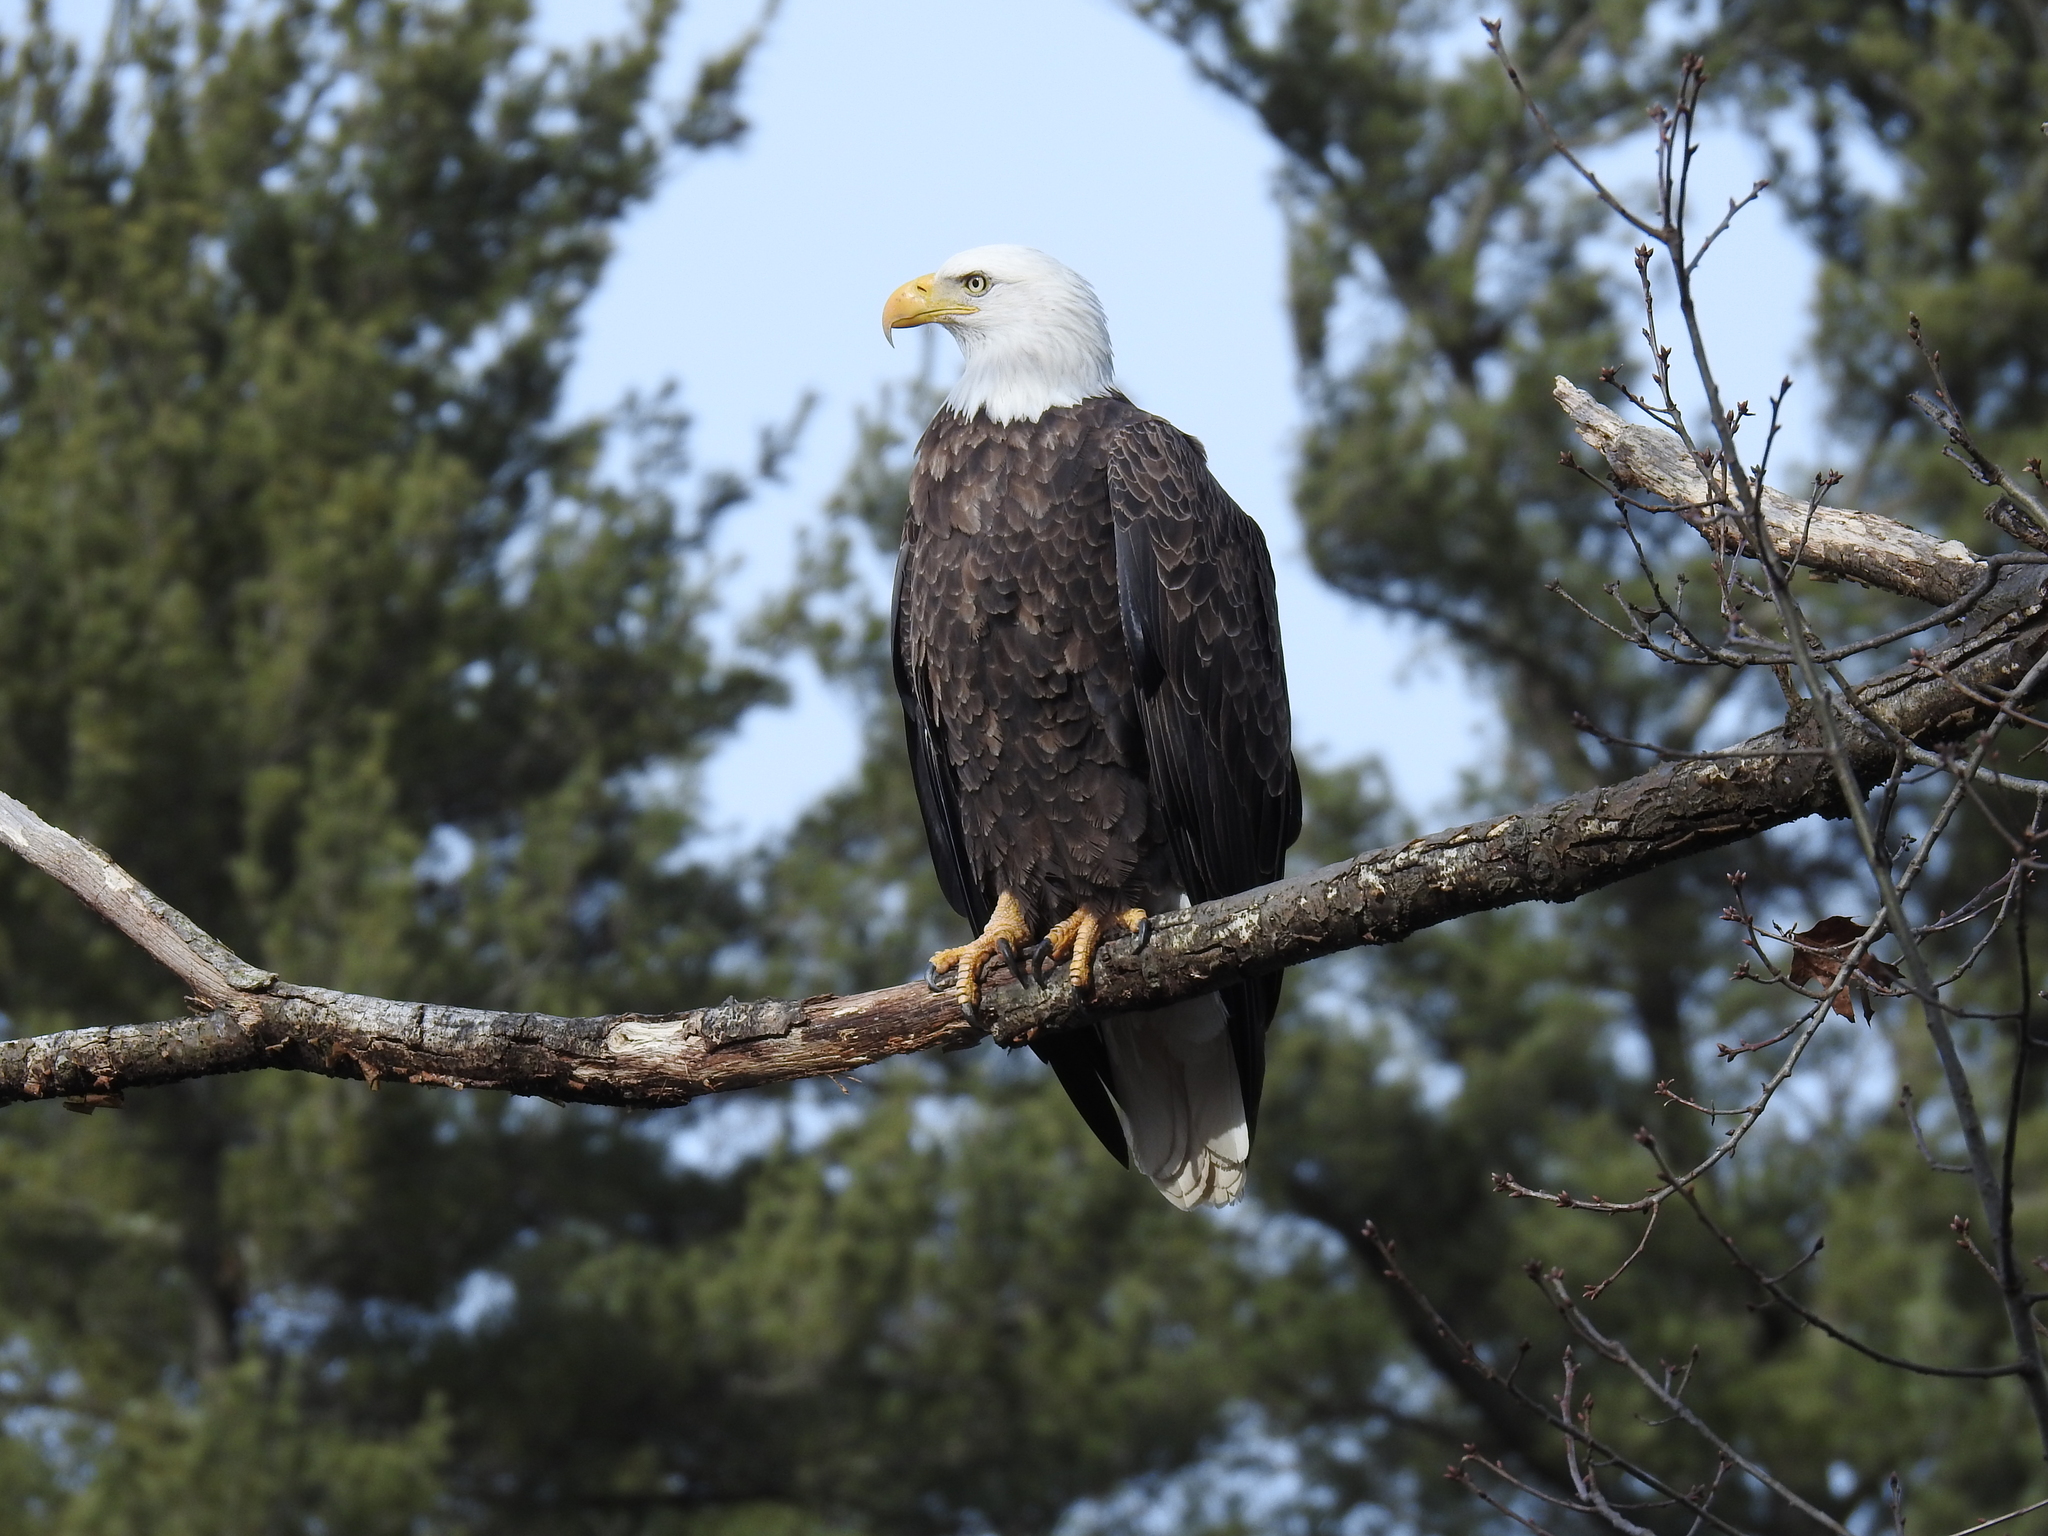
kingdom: Animalia
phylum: Chordata
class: Aves
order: Accipitriformes
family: Accipitridae
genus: Haliaeetus
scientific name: Haliaeetus leucocephalus
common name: Bald eagle
